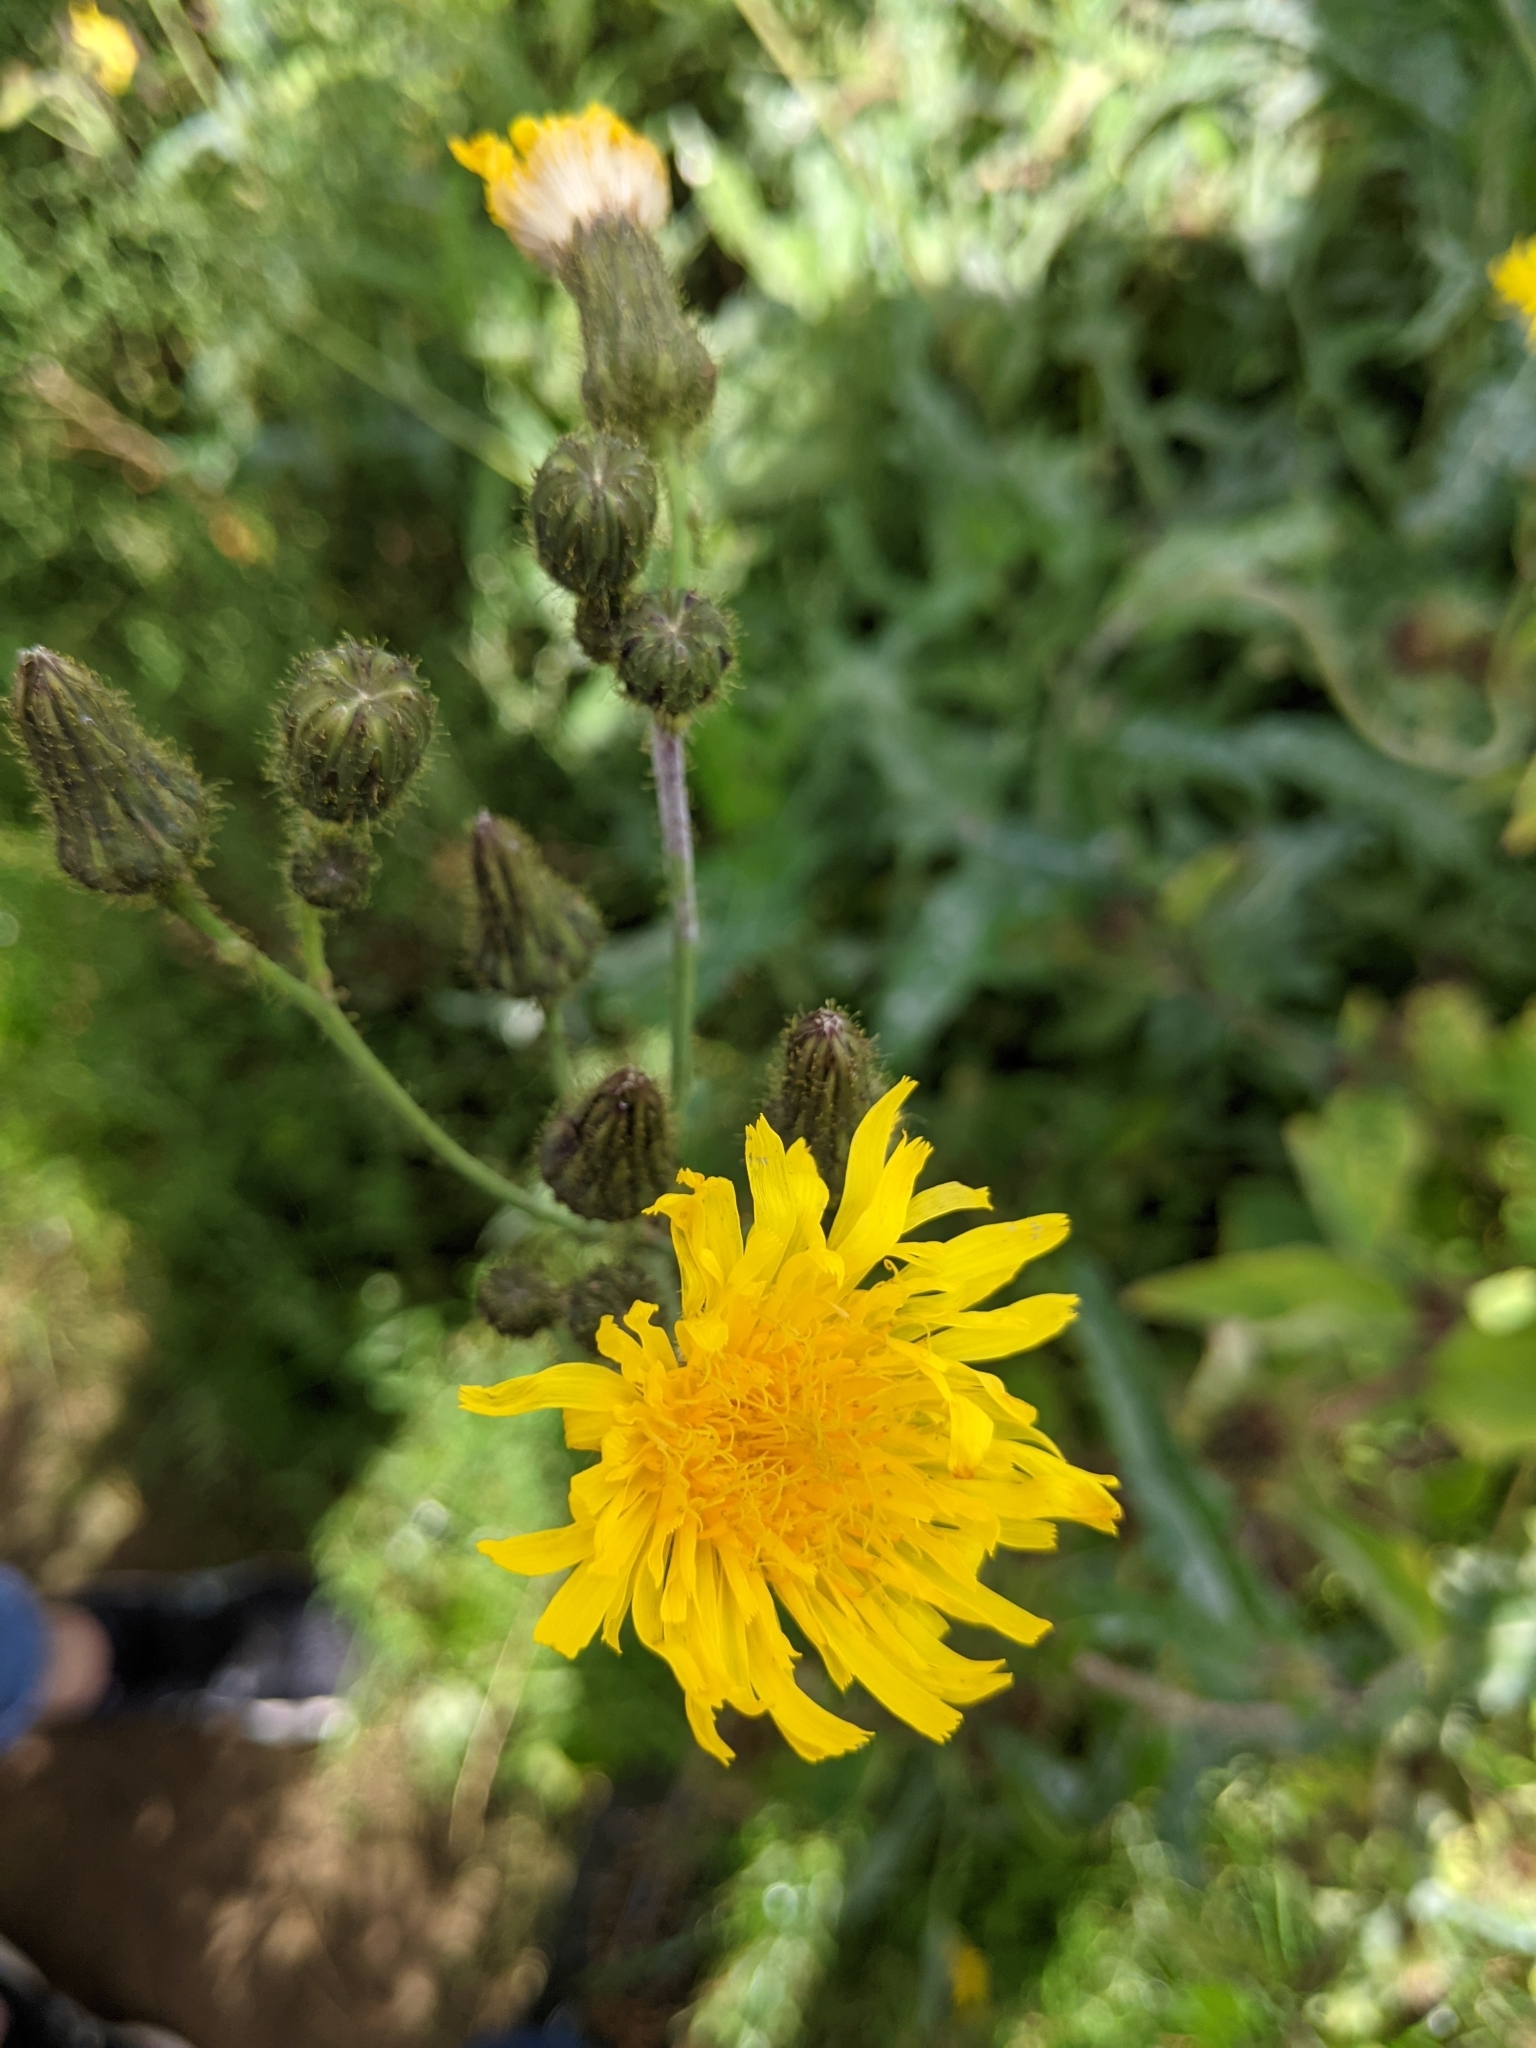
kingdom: Plantae
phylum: Tracheophyta
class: Magnoliopsida
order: Asterales
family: Asteraceae
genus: Sonchus
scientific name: Sonchus arvensis
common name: Perennial sow-thistle
